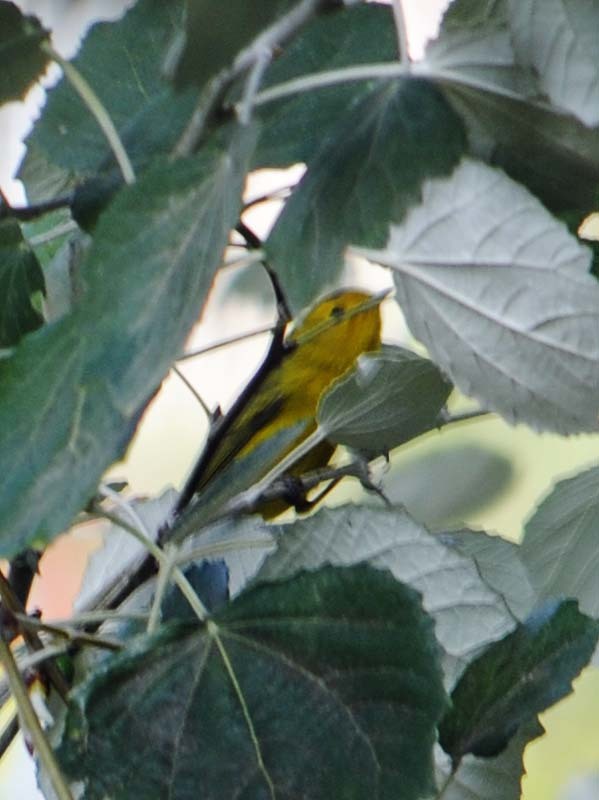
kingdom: Animalia
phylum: Chordata
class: Aves
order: Passeriformes
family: Parulidae
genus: Cardellina
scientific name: Cardellina pusilla
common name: Wilson's warbler
